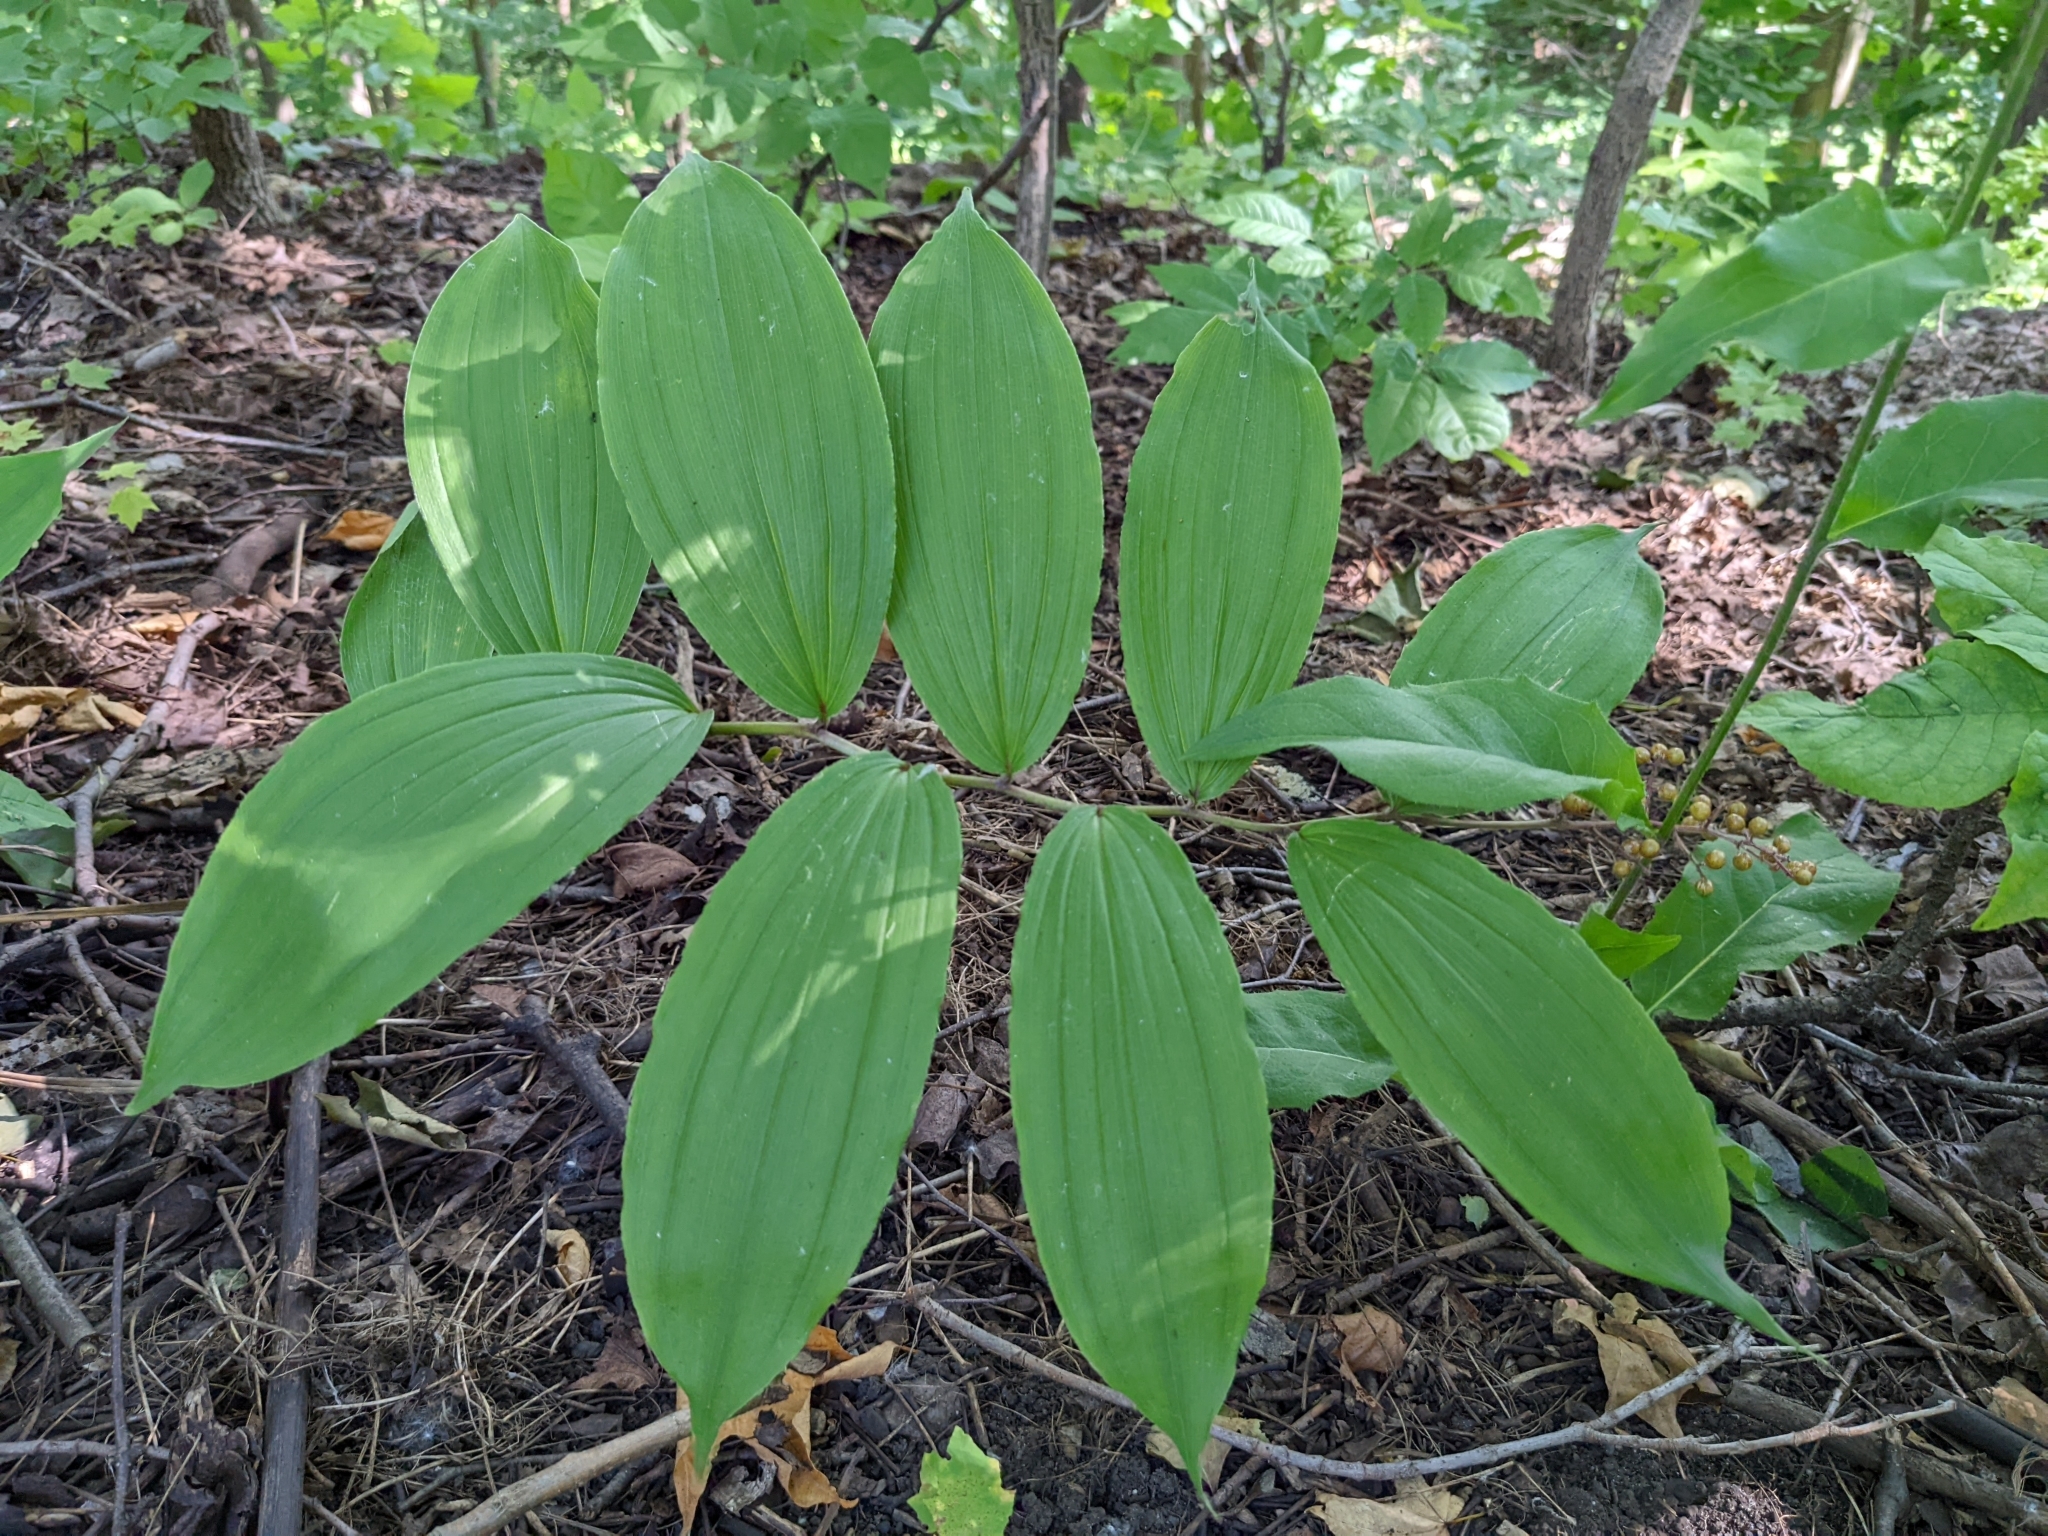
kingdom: Plantae
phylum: Tracheophyta
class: Liliopsida
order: Asparagales
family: Asparagaceae
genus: Maianthemum
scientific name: Maianthemum racemosum
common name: False spikenard
